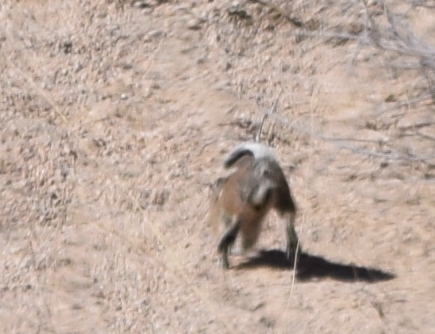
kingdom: Animalia
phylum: Chordata
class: Mammalia
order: Rodentia
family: Sciuridae
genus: Ammospermophilus
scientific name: Ammospermophilus leucurus
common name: White-tailed antelope squirrel
